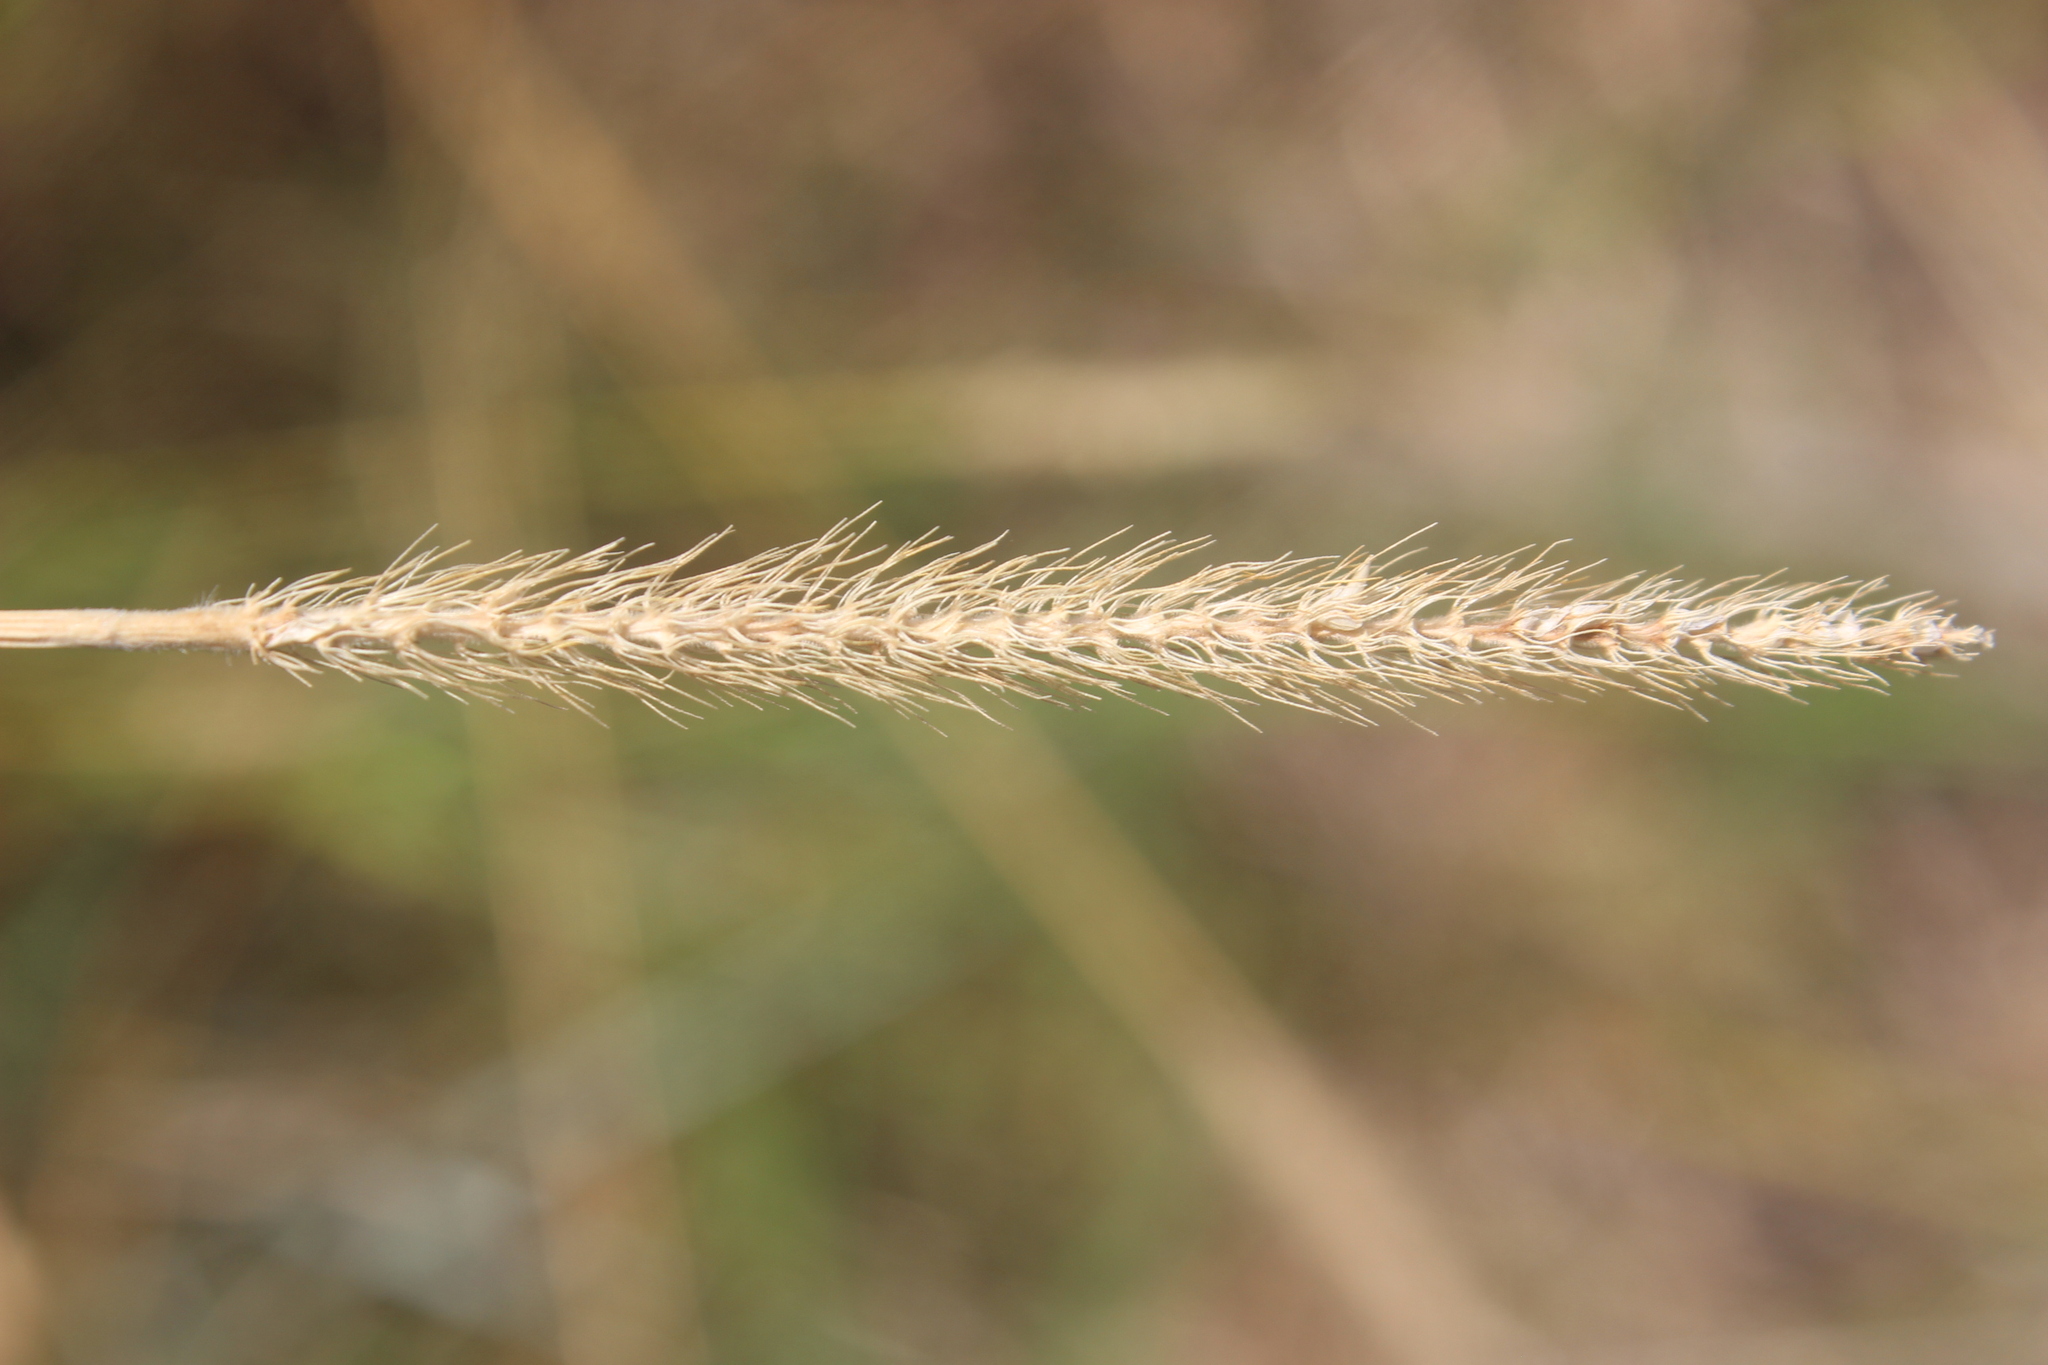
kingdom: Plantae
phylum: Tracheophyta
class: Liliopsida
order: Poales
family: Poaceae
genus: Setaria
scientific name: Setaria parviflora
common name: Knotroot bristle-grass
